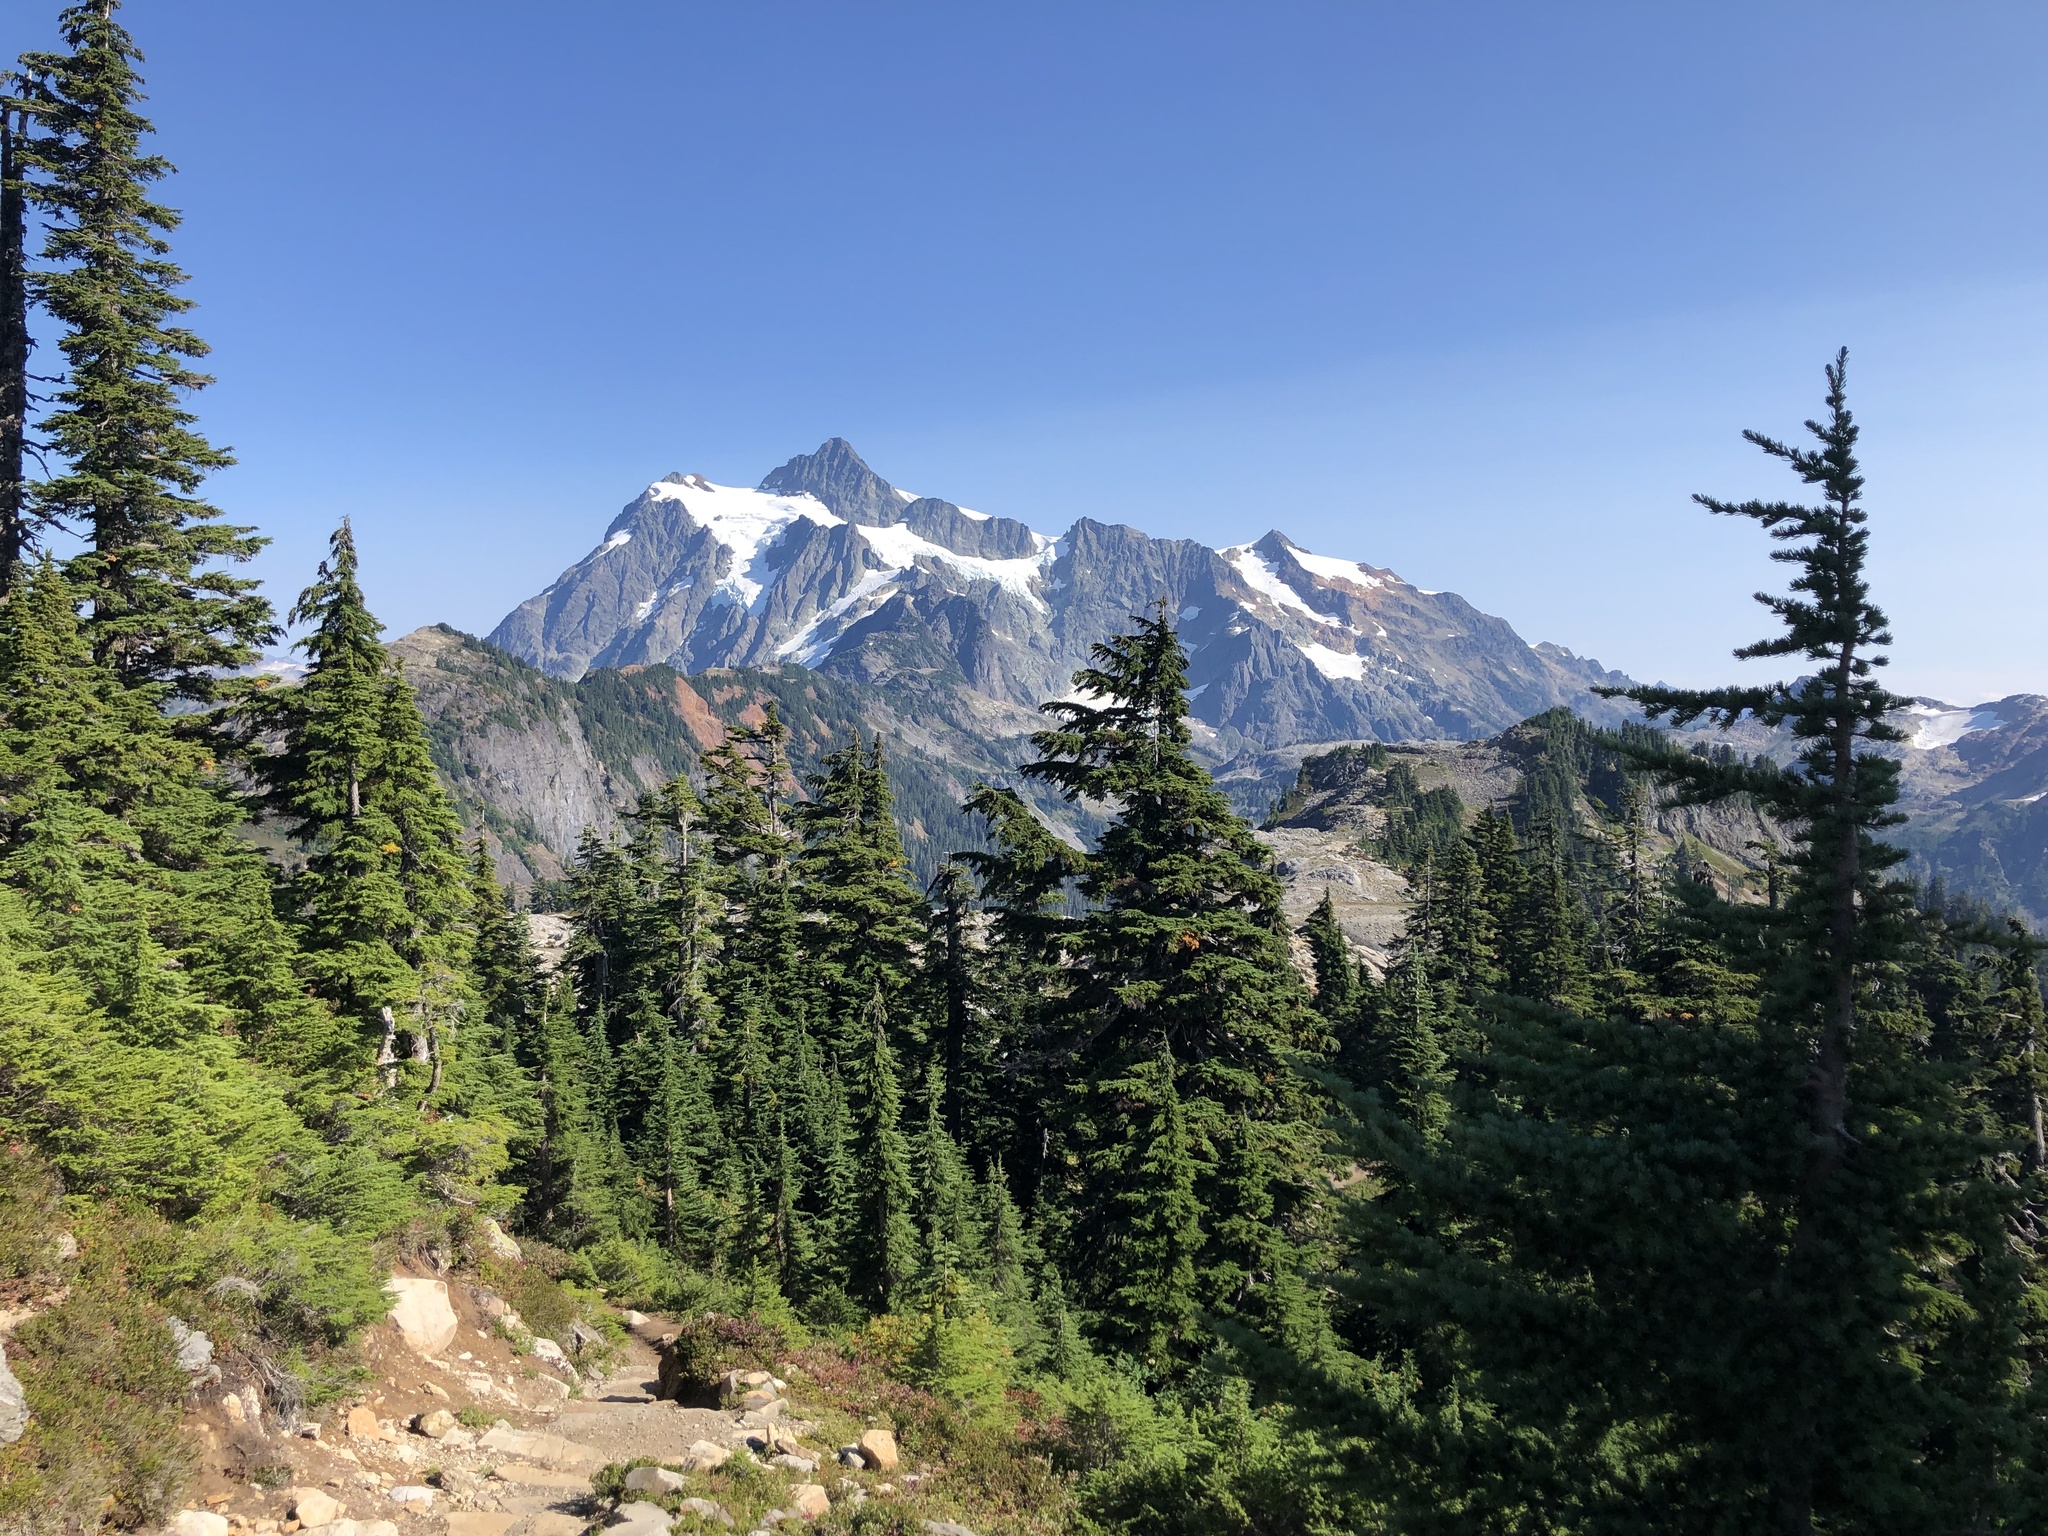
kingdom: Plantae
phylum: Tracheophyta
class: Pinopsida
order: Pinales
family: Pinaceae
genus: Tsuga
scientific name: Tsuga mertensiana
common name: Mountain hemlock
